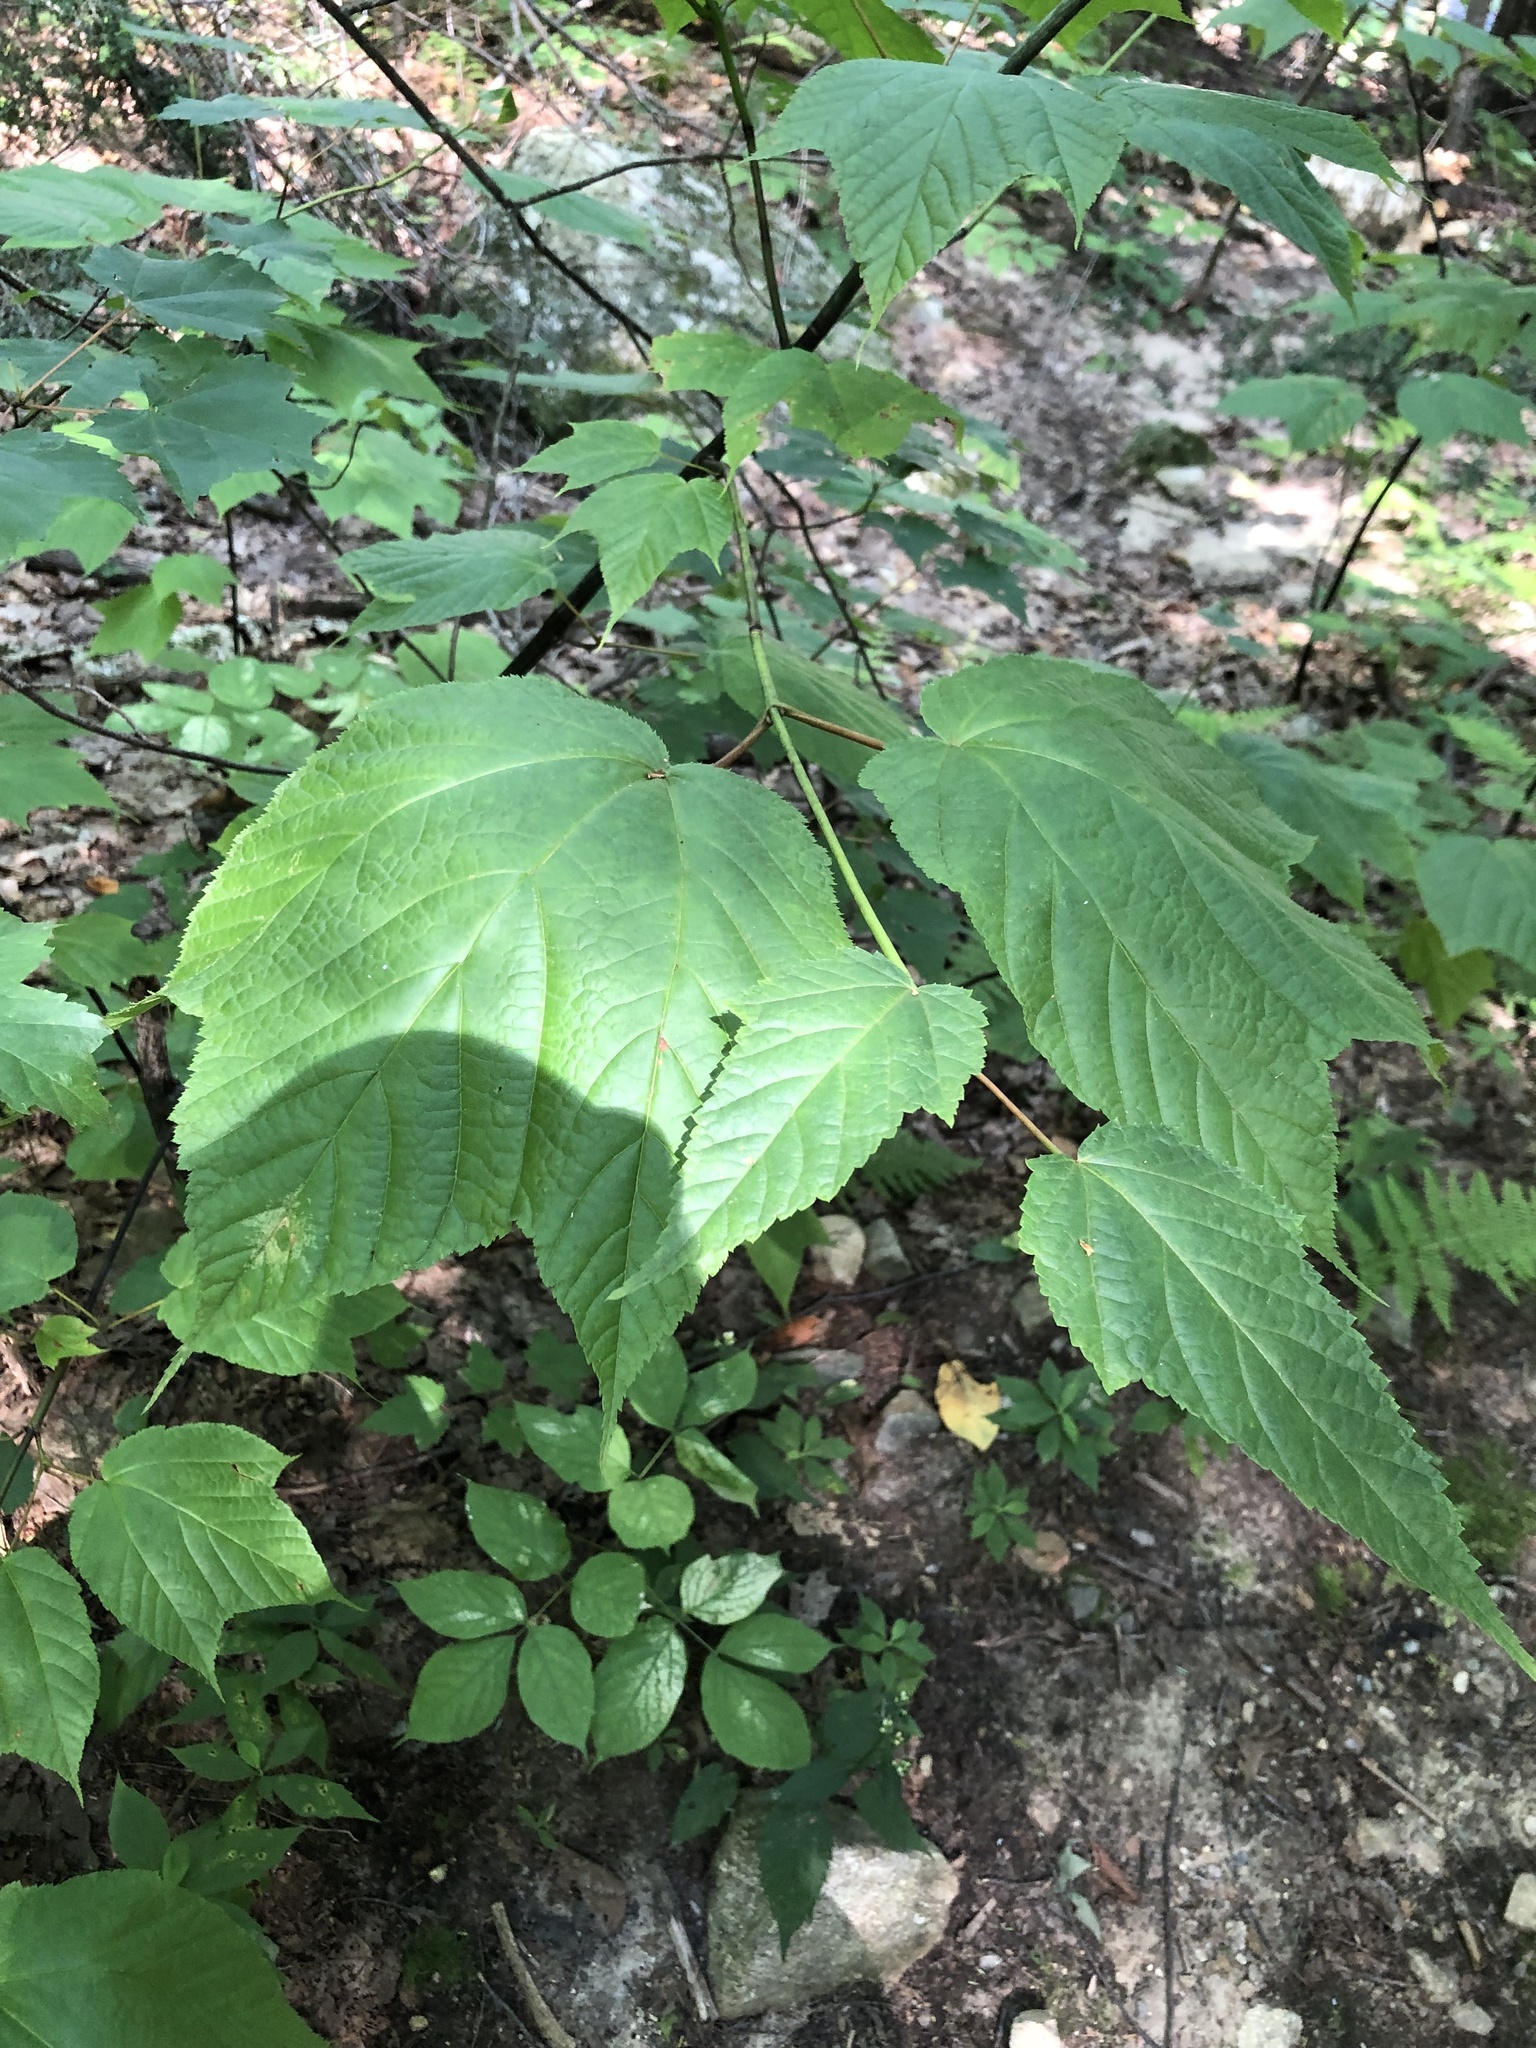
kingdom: Plantae
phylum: Tracheophyta
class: Magnoliopsida
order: Sapindales
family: Sapindaceae
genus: Acer
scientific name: Acer pensylvanicum
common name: Moosewood
